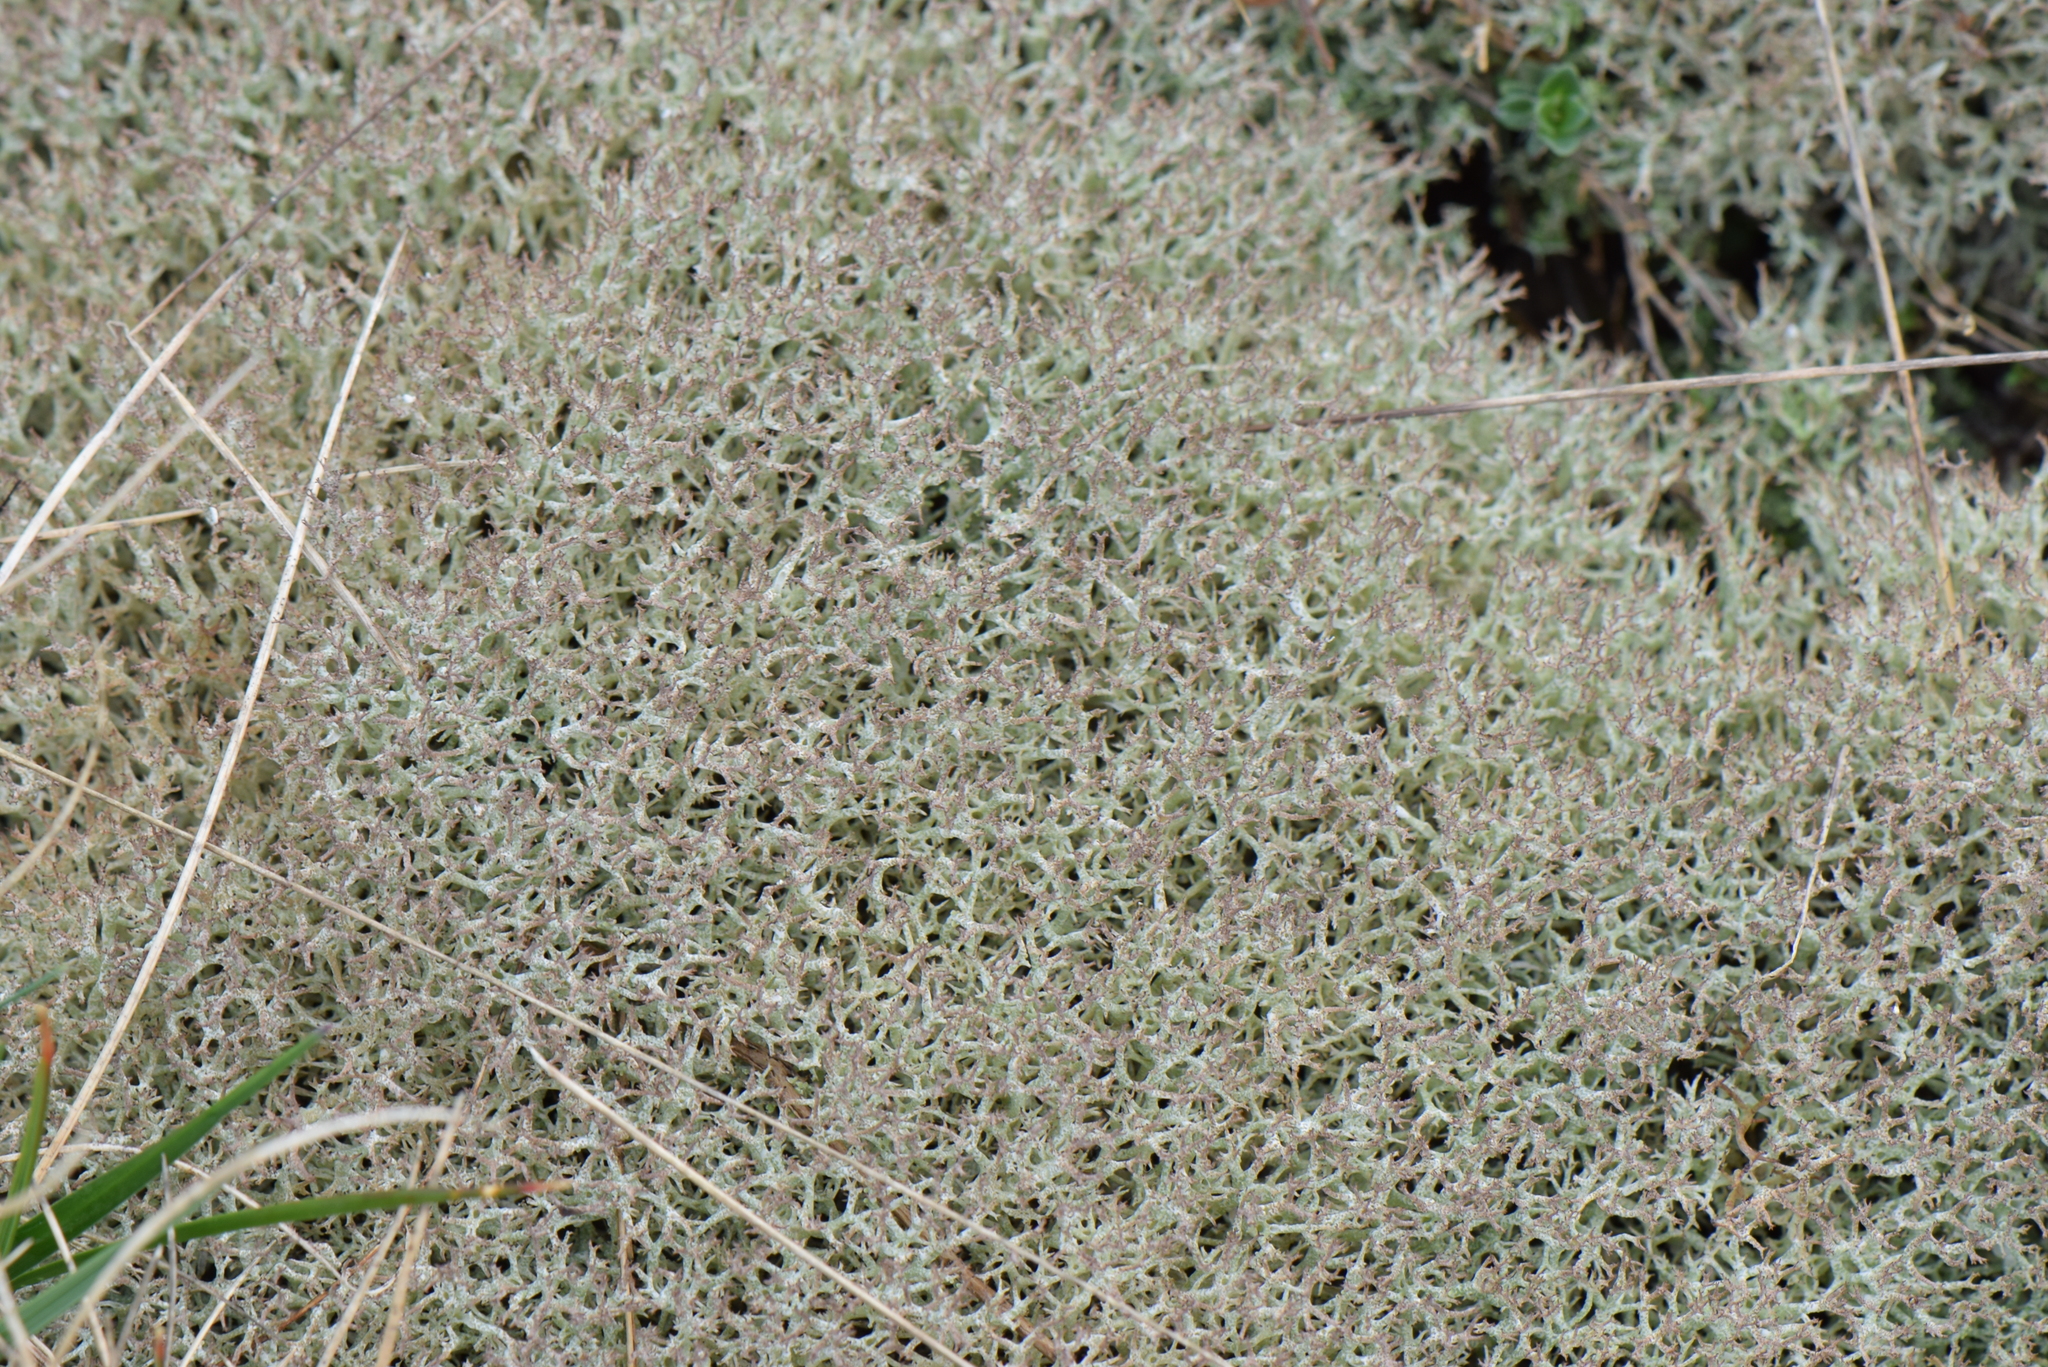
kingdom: Fungi
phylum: Ascomycota
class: Lecanoromycetes
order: Lecanorales
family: Cladoniaceae
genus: Cladonia
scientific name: Cladonia rangiformis
